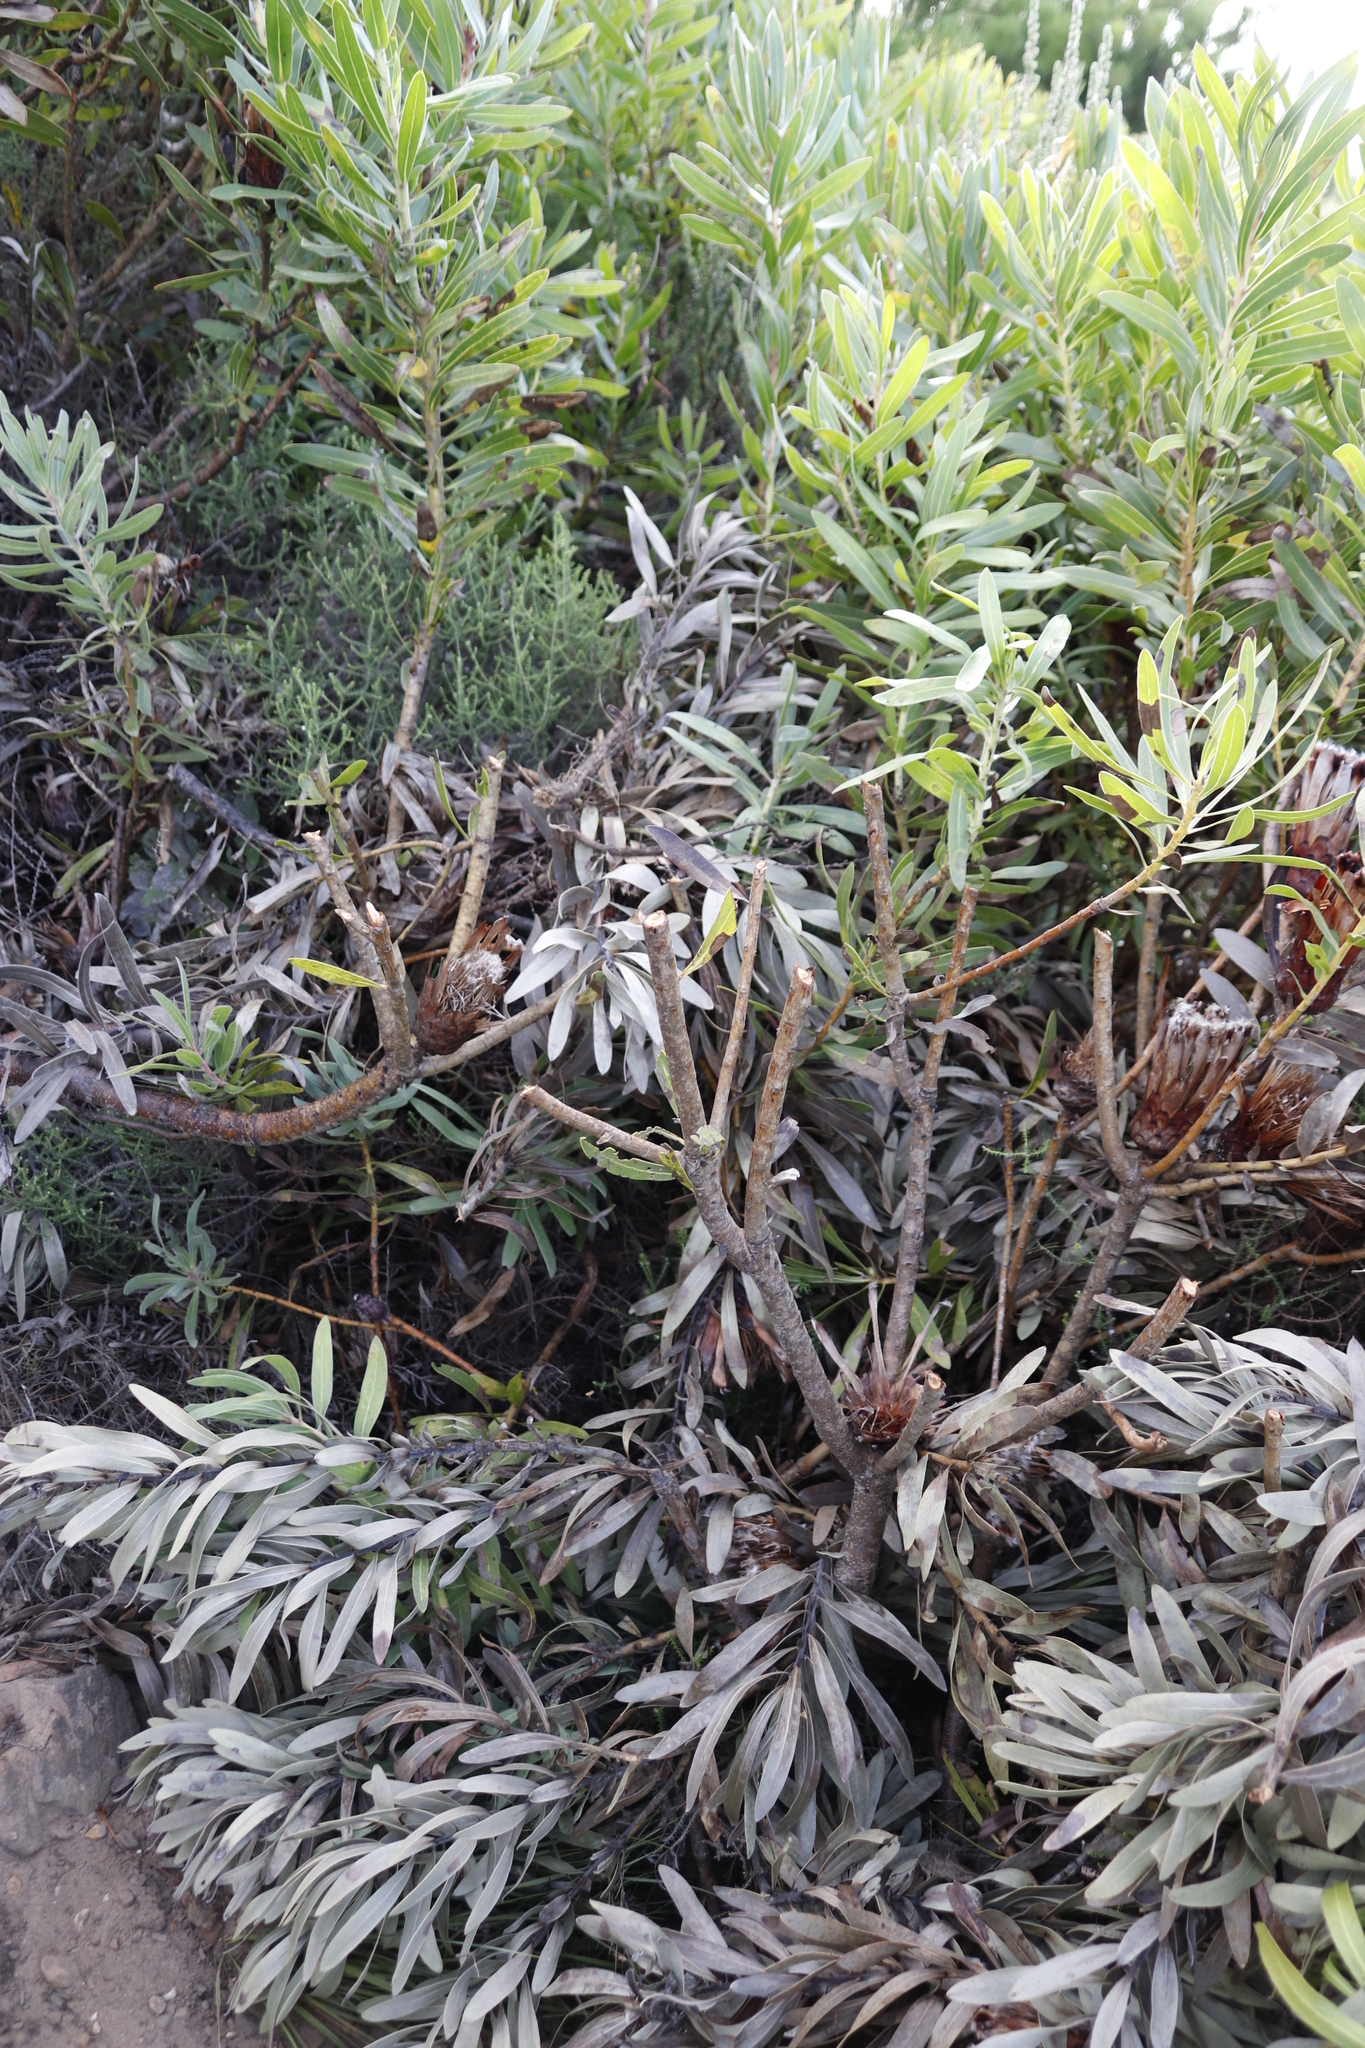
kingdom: Plantae
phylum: Tracheophyta
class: Magnoliopsida
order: Proteales
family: Proteaceae
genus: Protea
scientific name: Protea lepidocarpodendron
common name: Black-bearded protea
